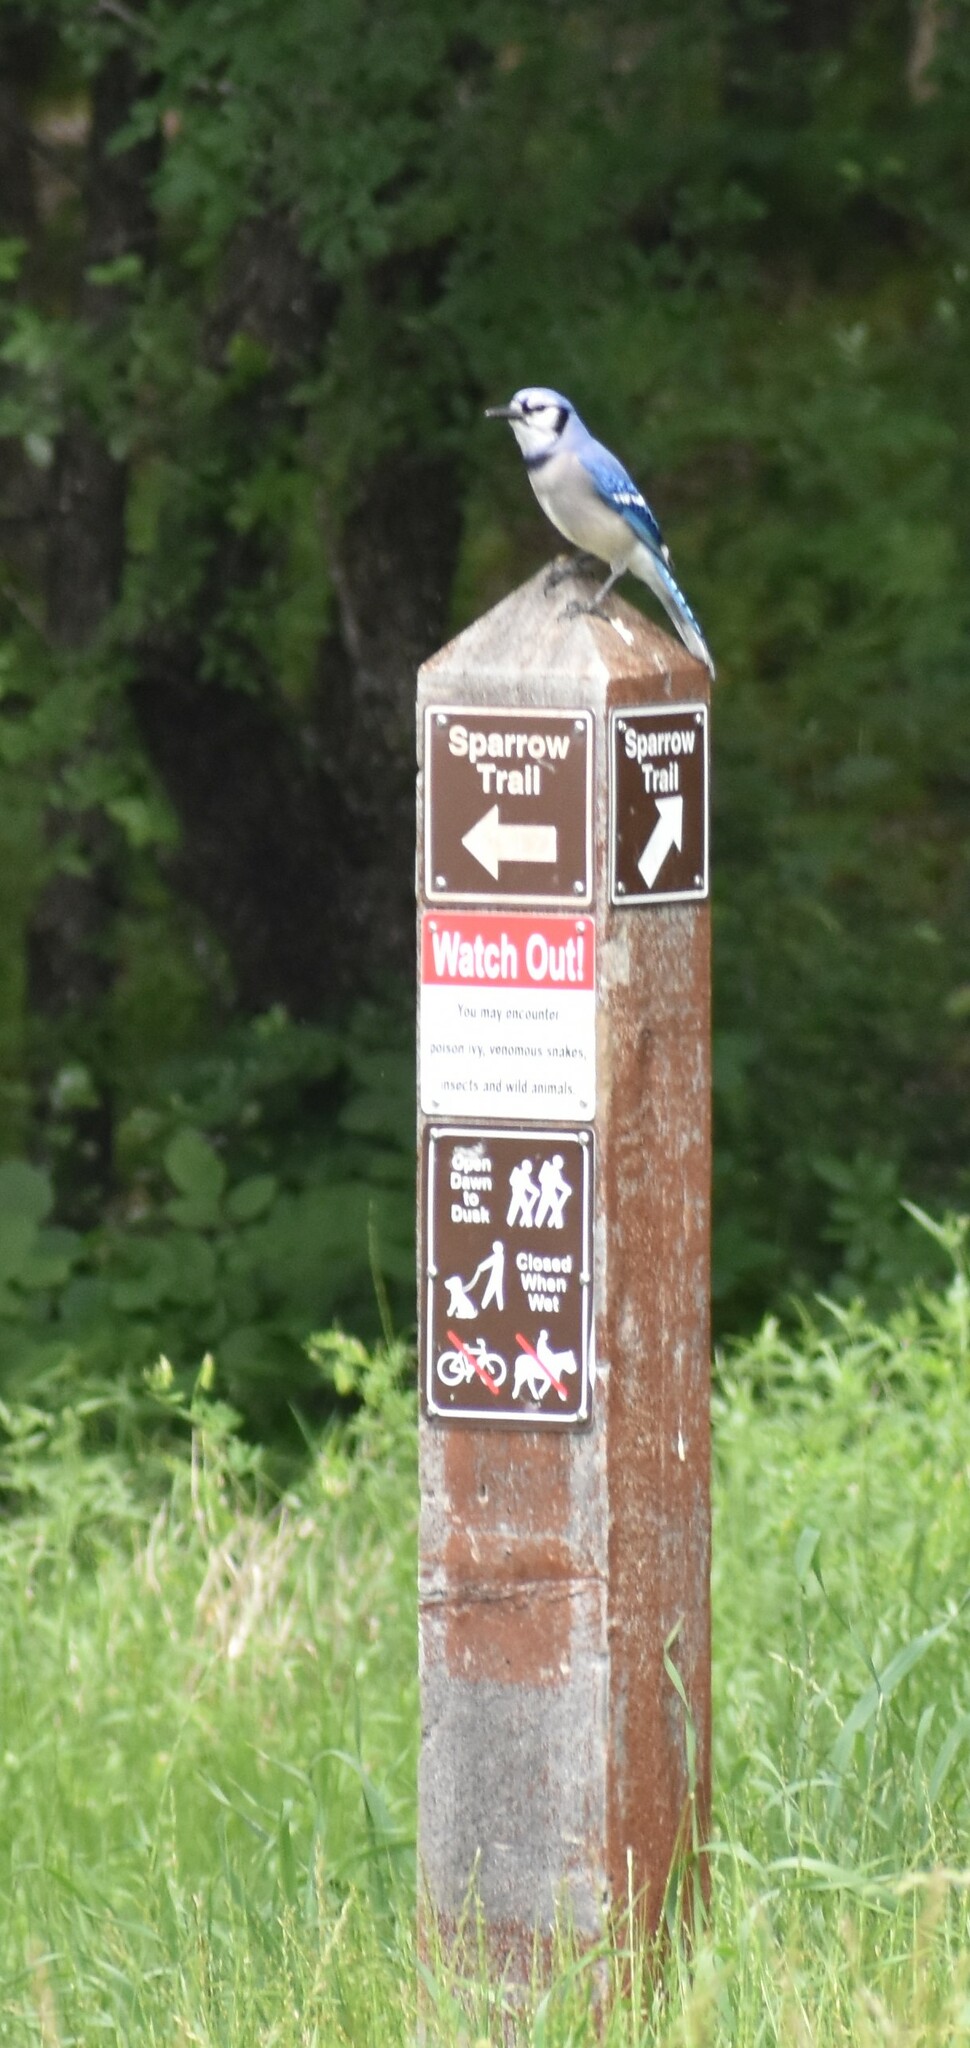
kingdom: Animalia
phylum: Chordata
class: Aves
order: Passeriformes
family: Corvidae
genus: Cyanocitta
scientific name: Cyanocitta cristata
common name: Blue jay
